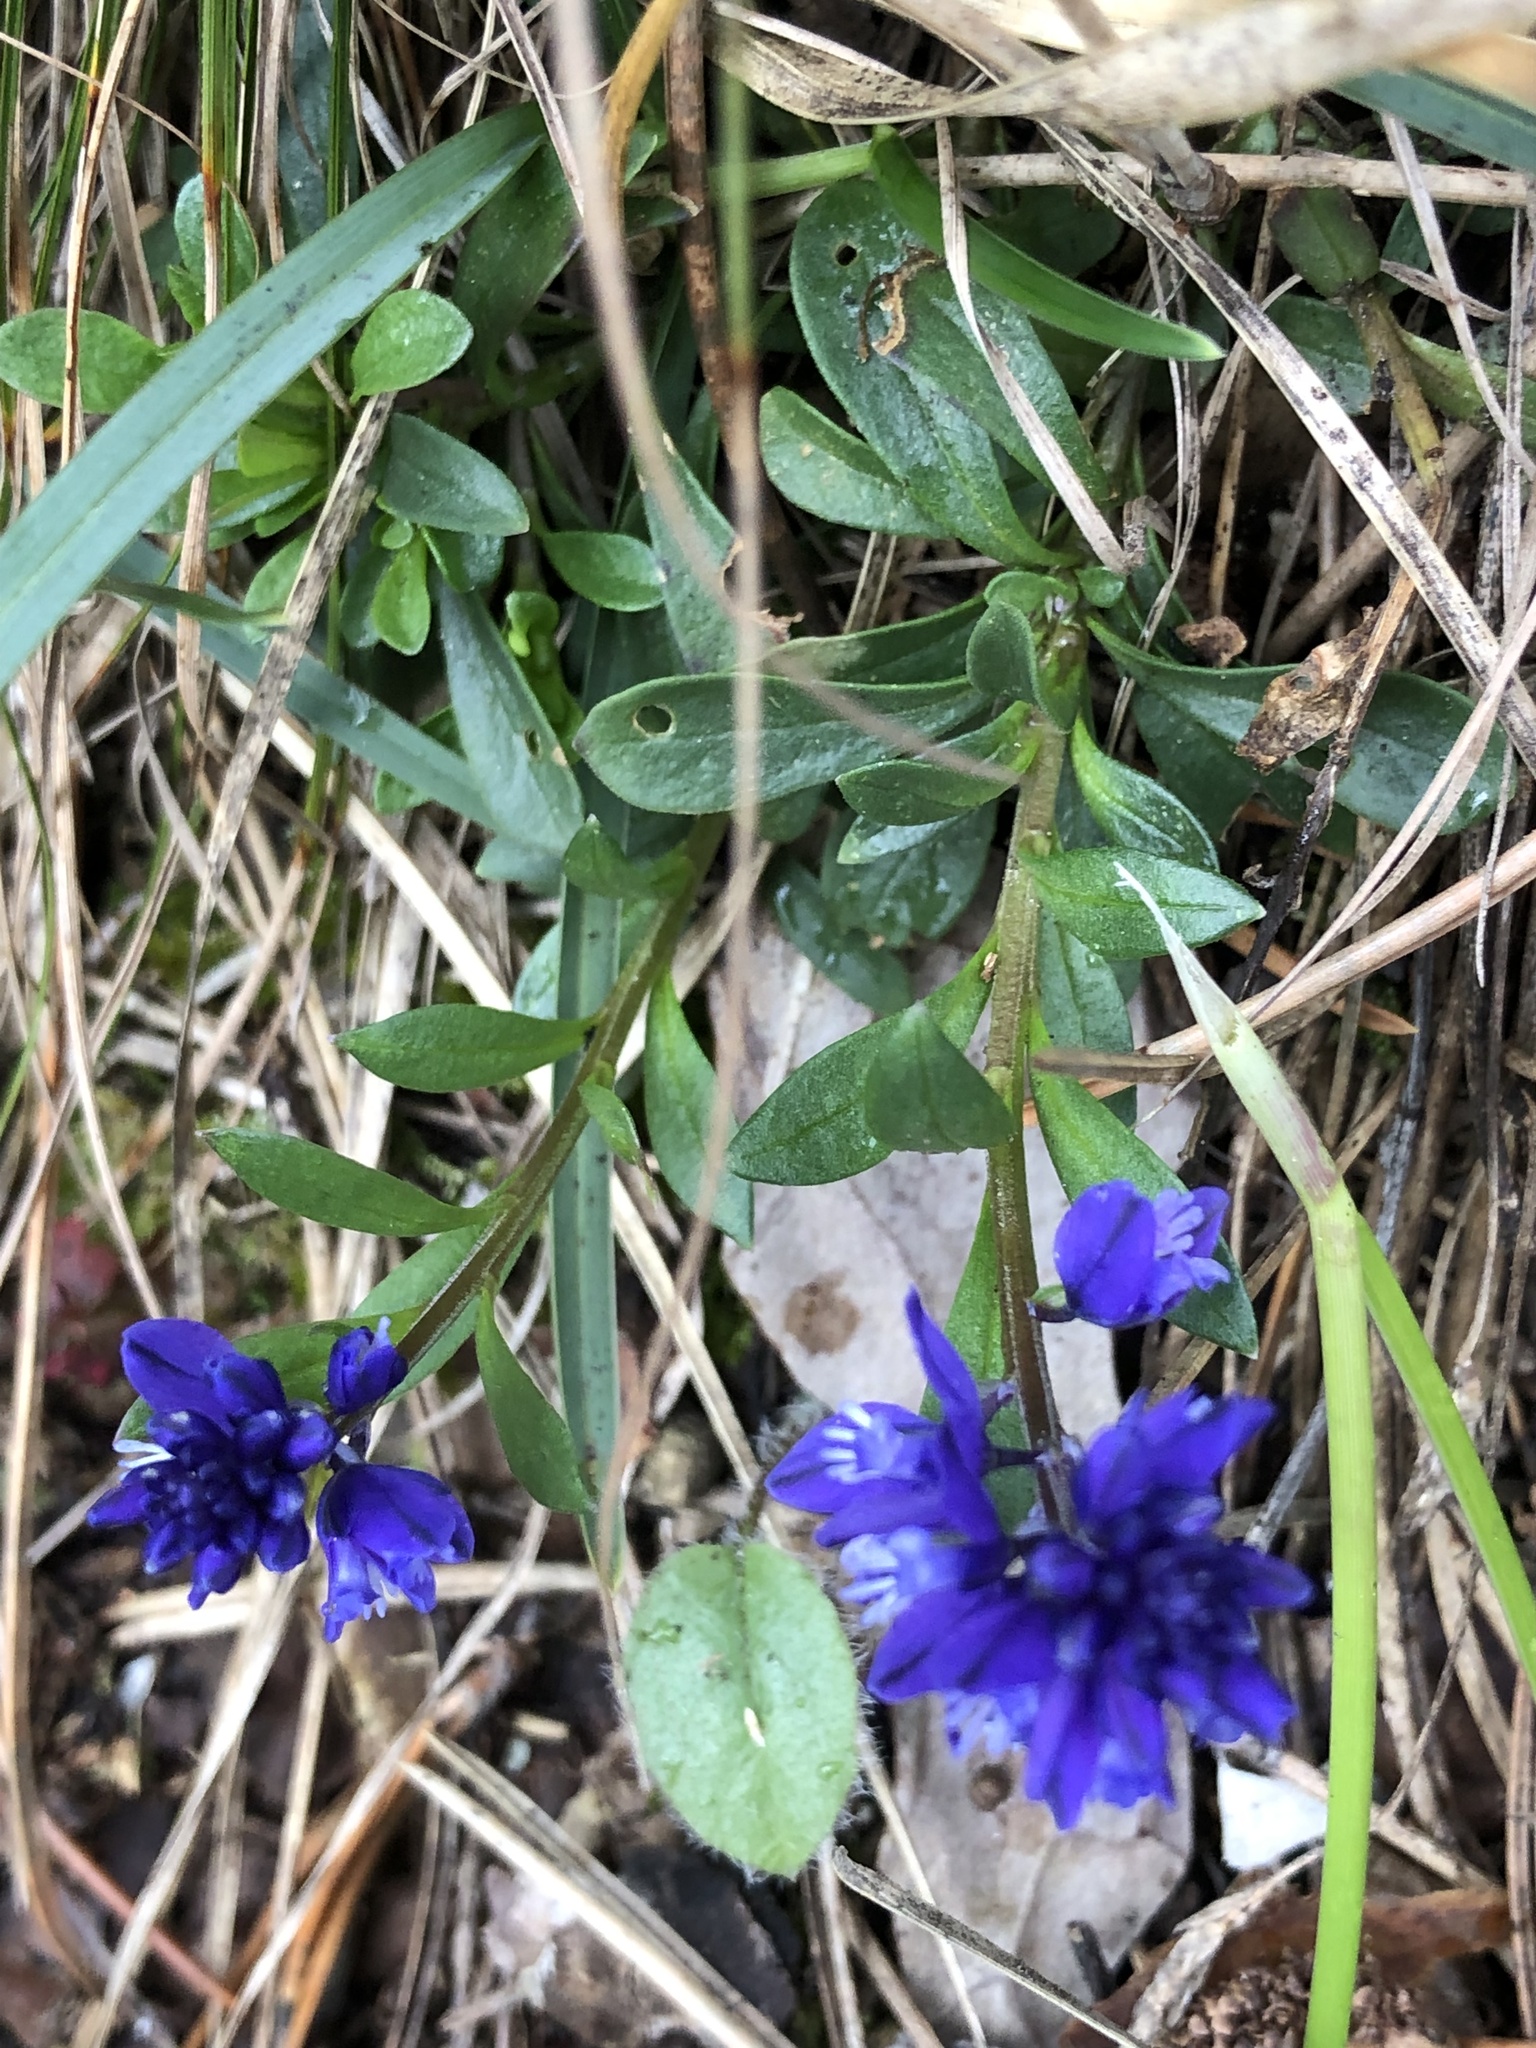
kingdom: Plantae
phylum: Tracheophyta
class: Magnoliopsida
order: Fabales
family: Polygalaceae
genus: Polygala
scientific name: Polygala amara
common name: Milkwort
